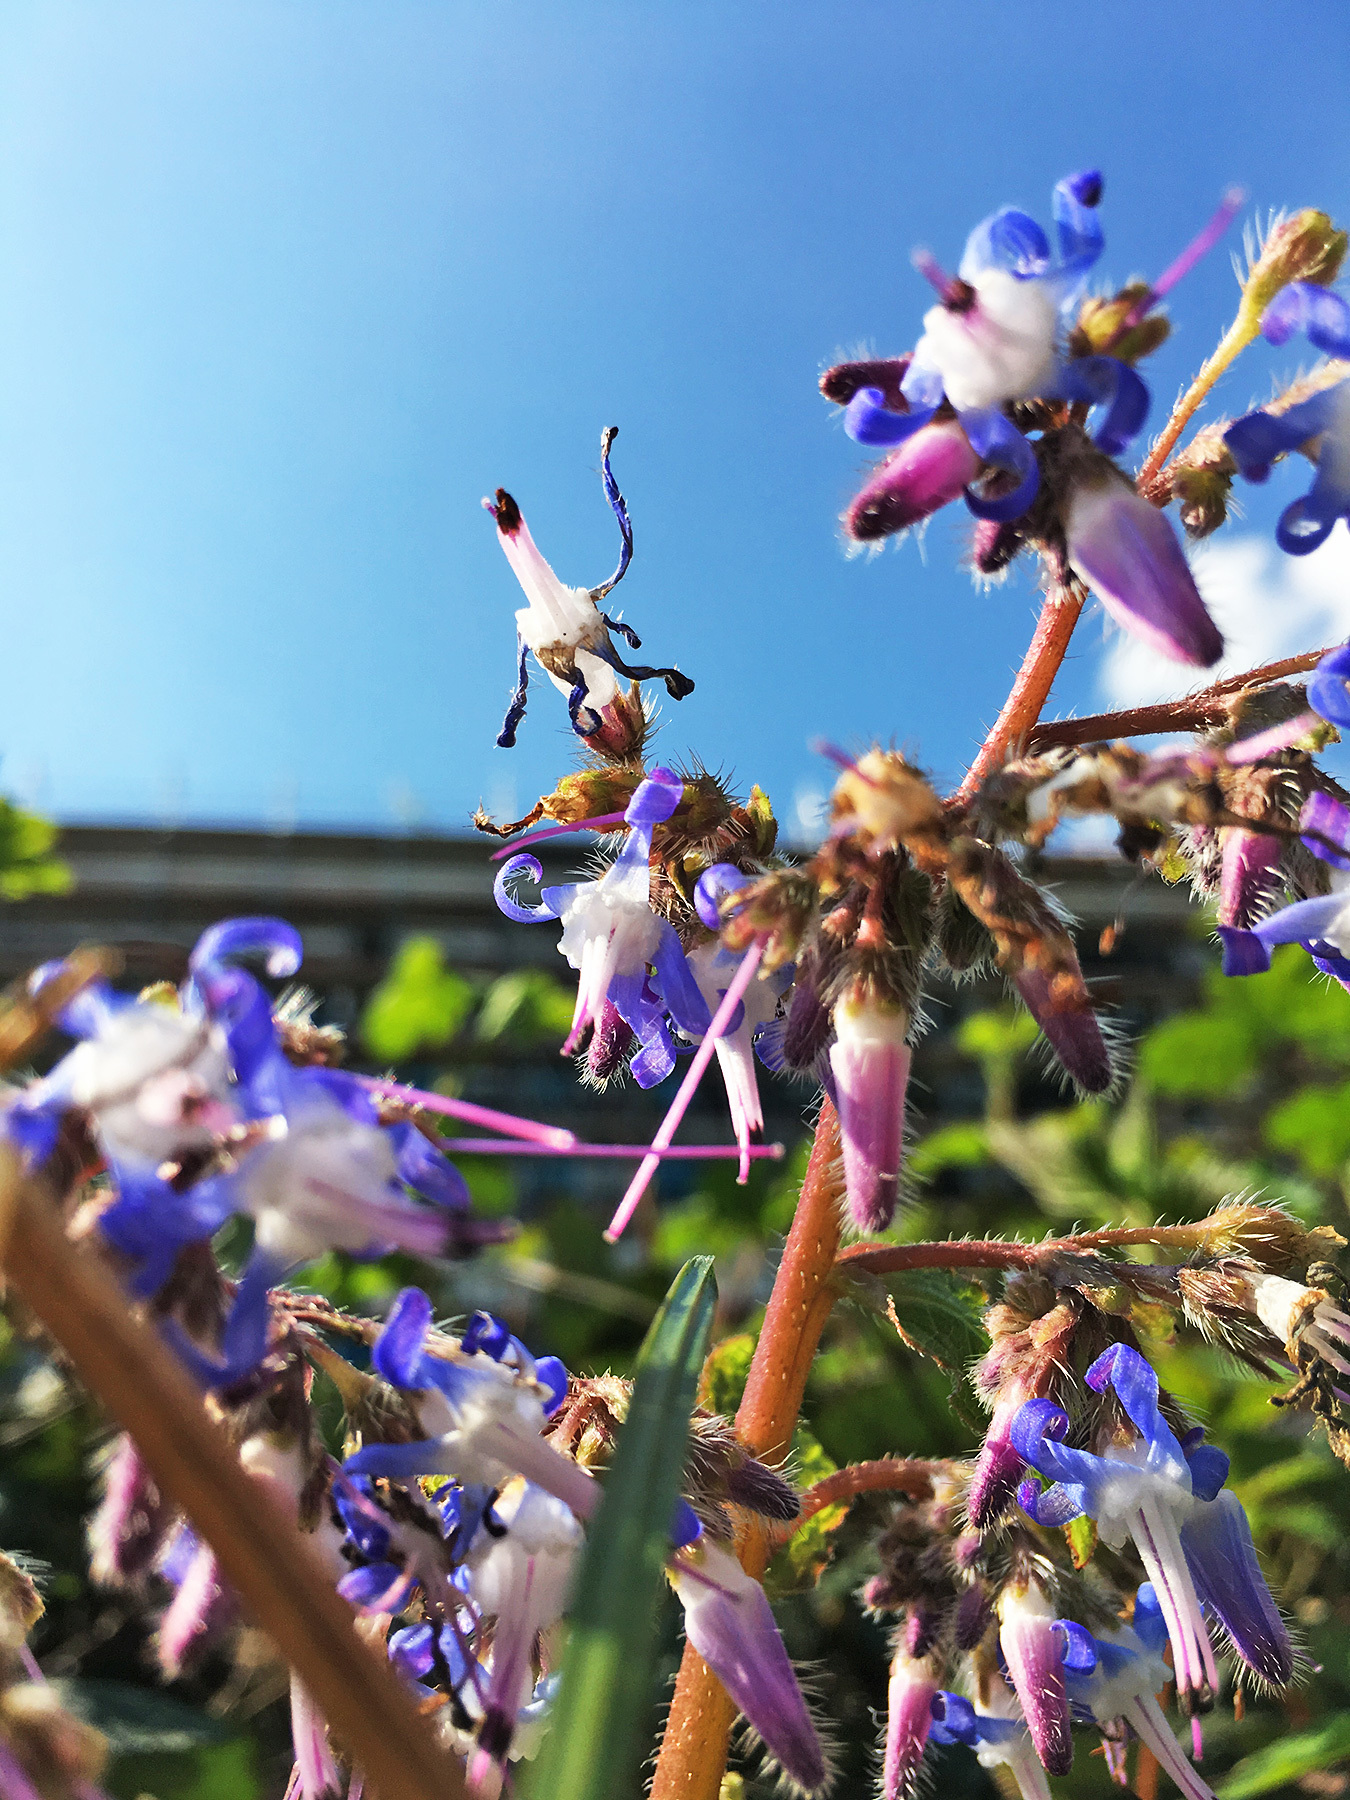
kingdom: Plantae
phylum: Tracheophyta
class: Magnoliopsida
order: Boraginales
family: Boraginaceae
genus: Borago
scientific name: Borago officinalis
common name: Borage
